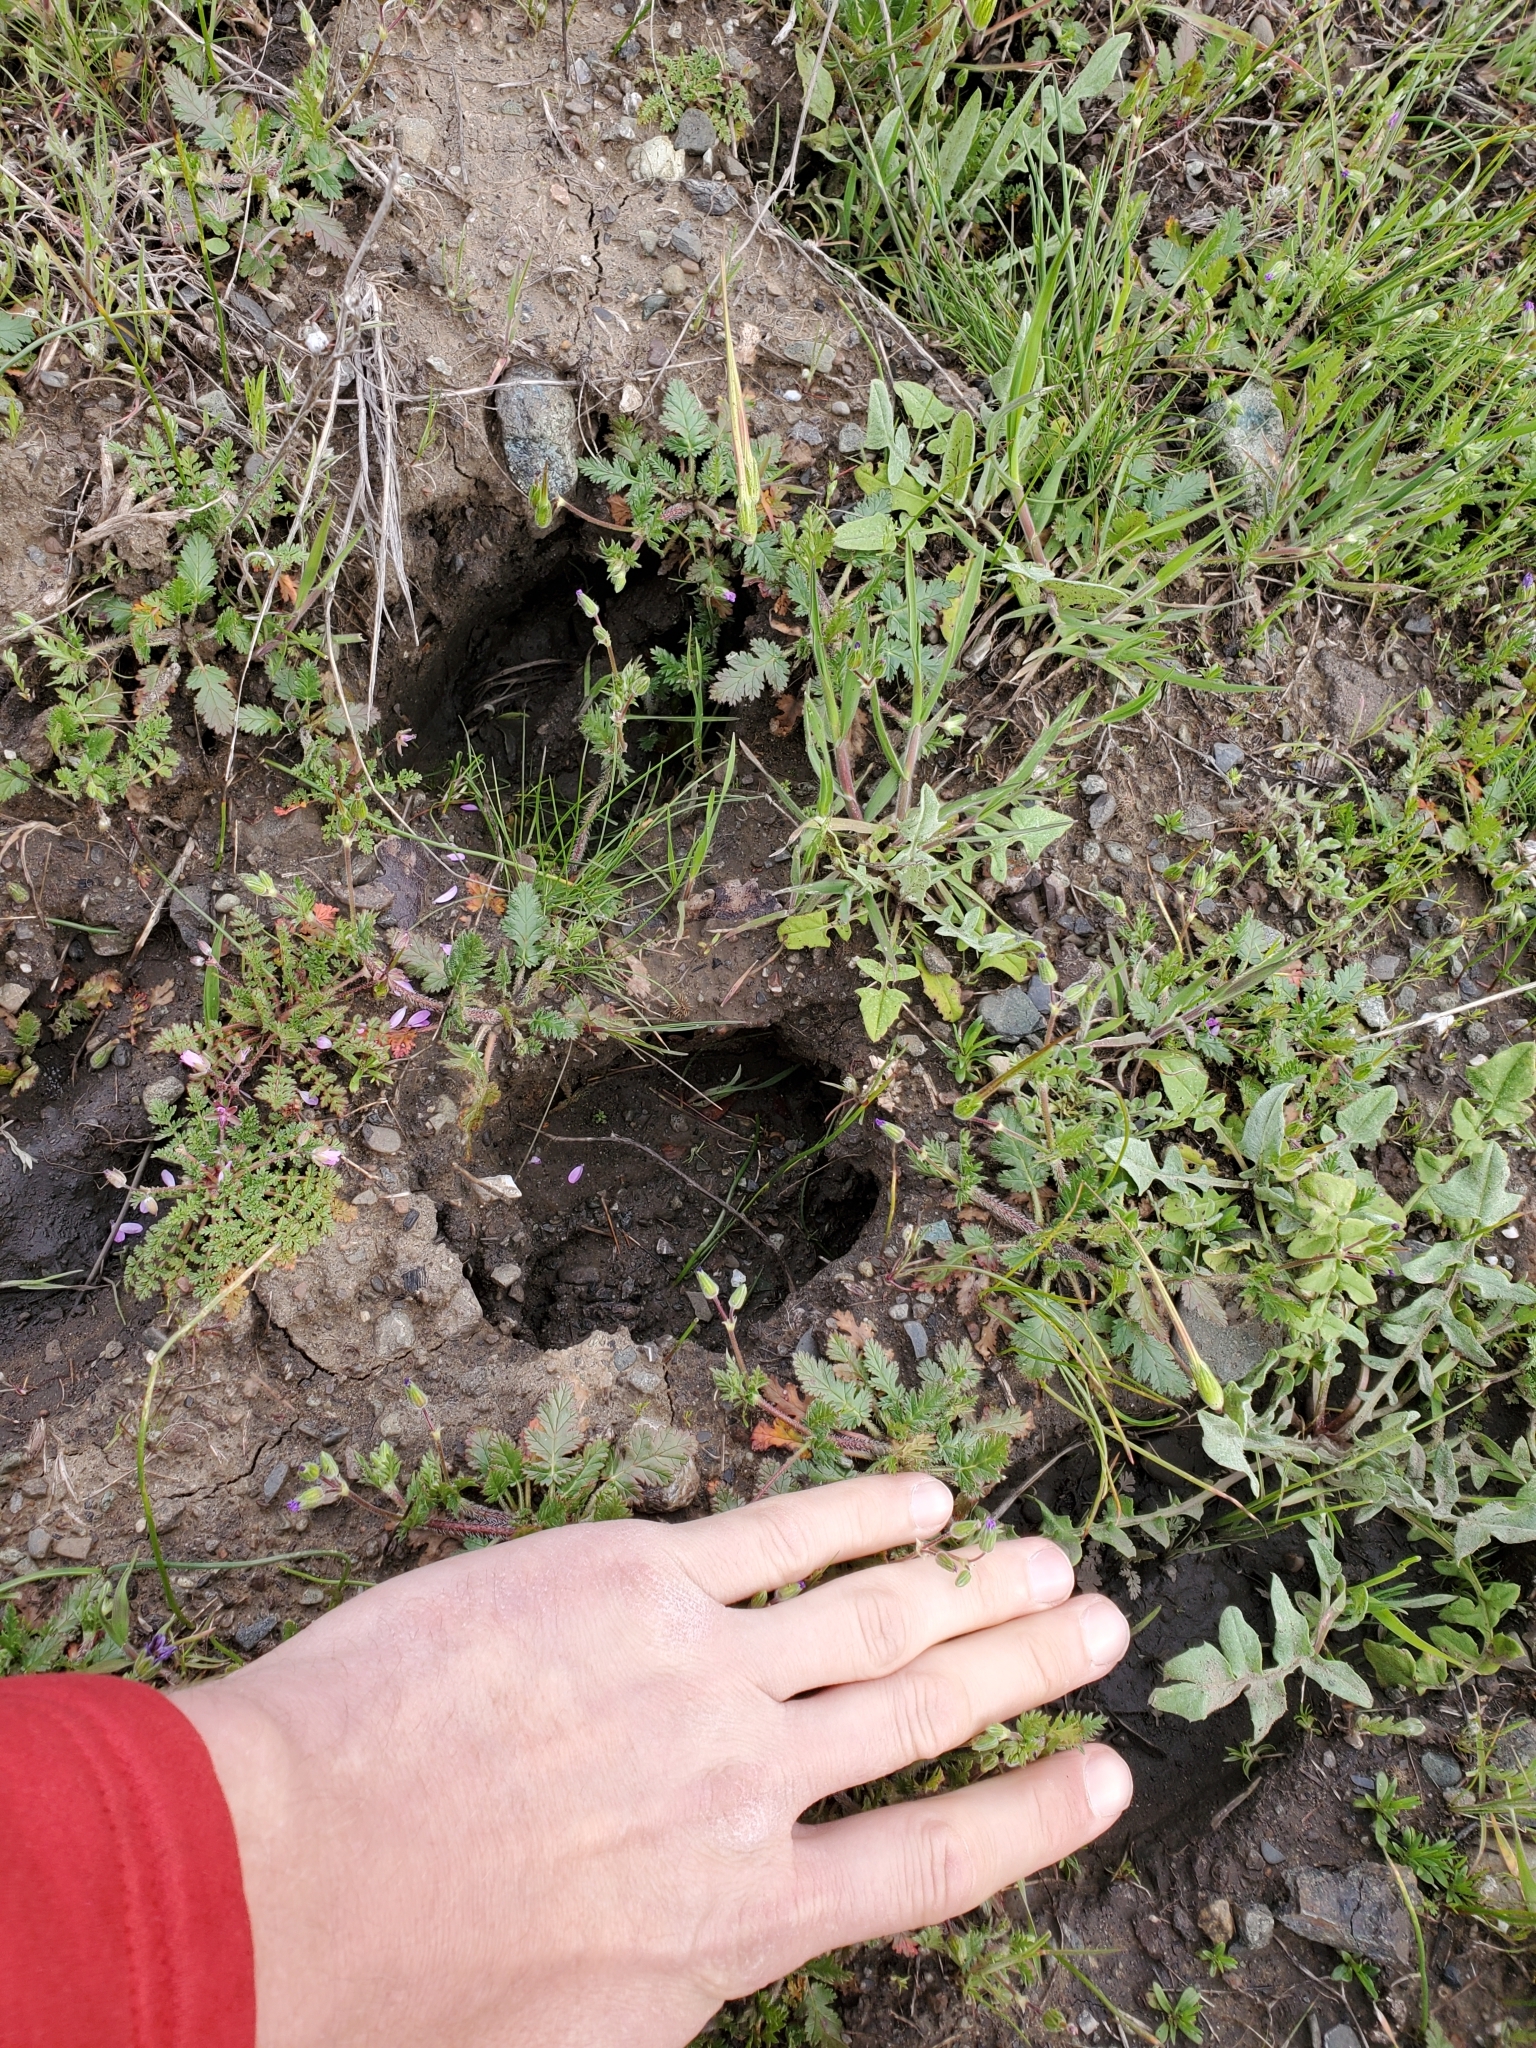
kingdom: Animalia
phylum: Chordata
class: Mammalia
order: Artiodactyla
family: Cervidae
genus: Odocoileus
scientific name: Odocoileus hemionus
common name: Mule deer
